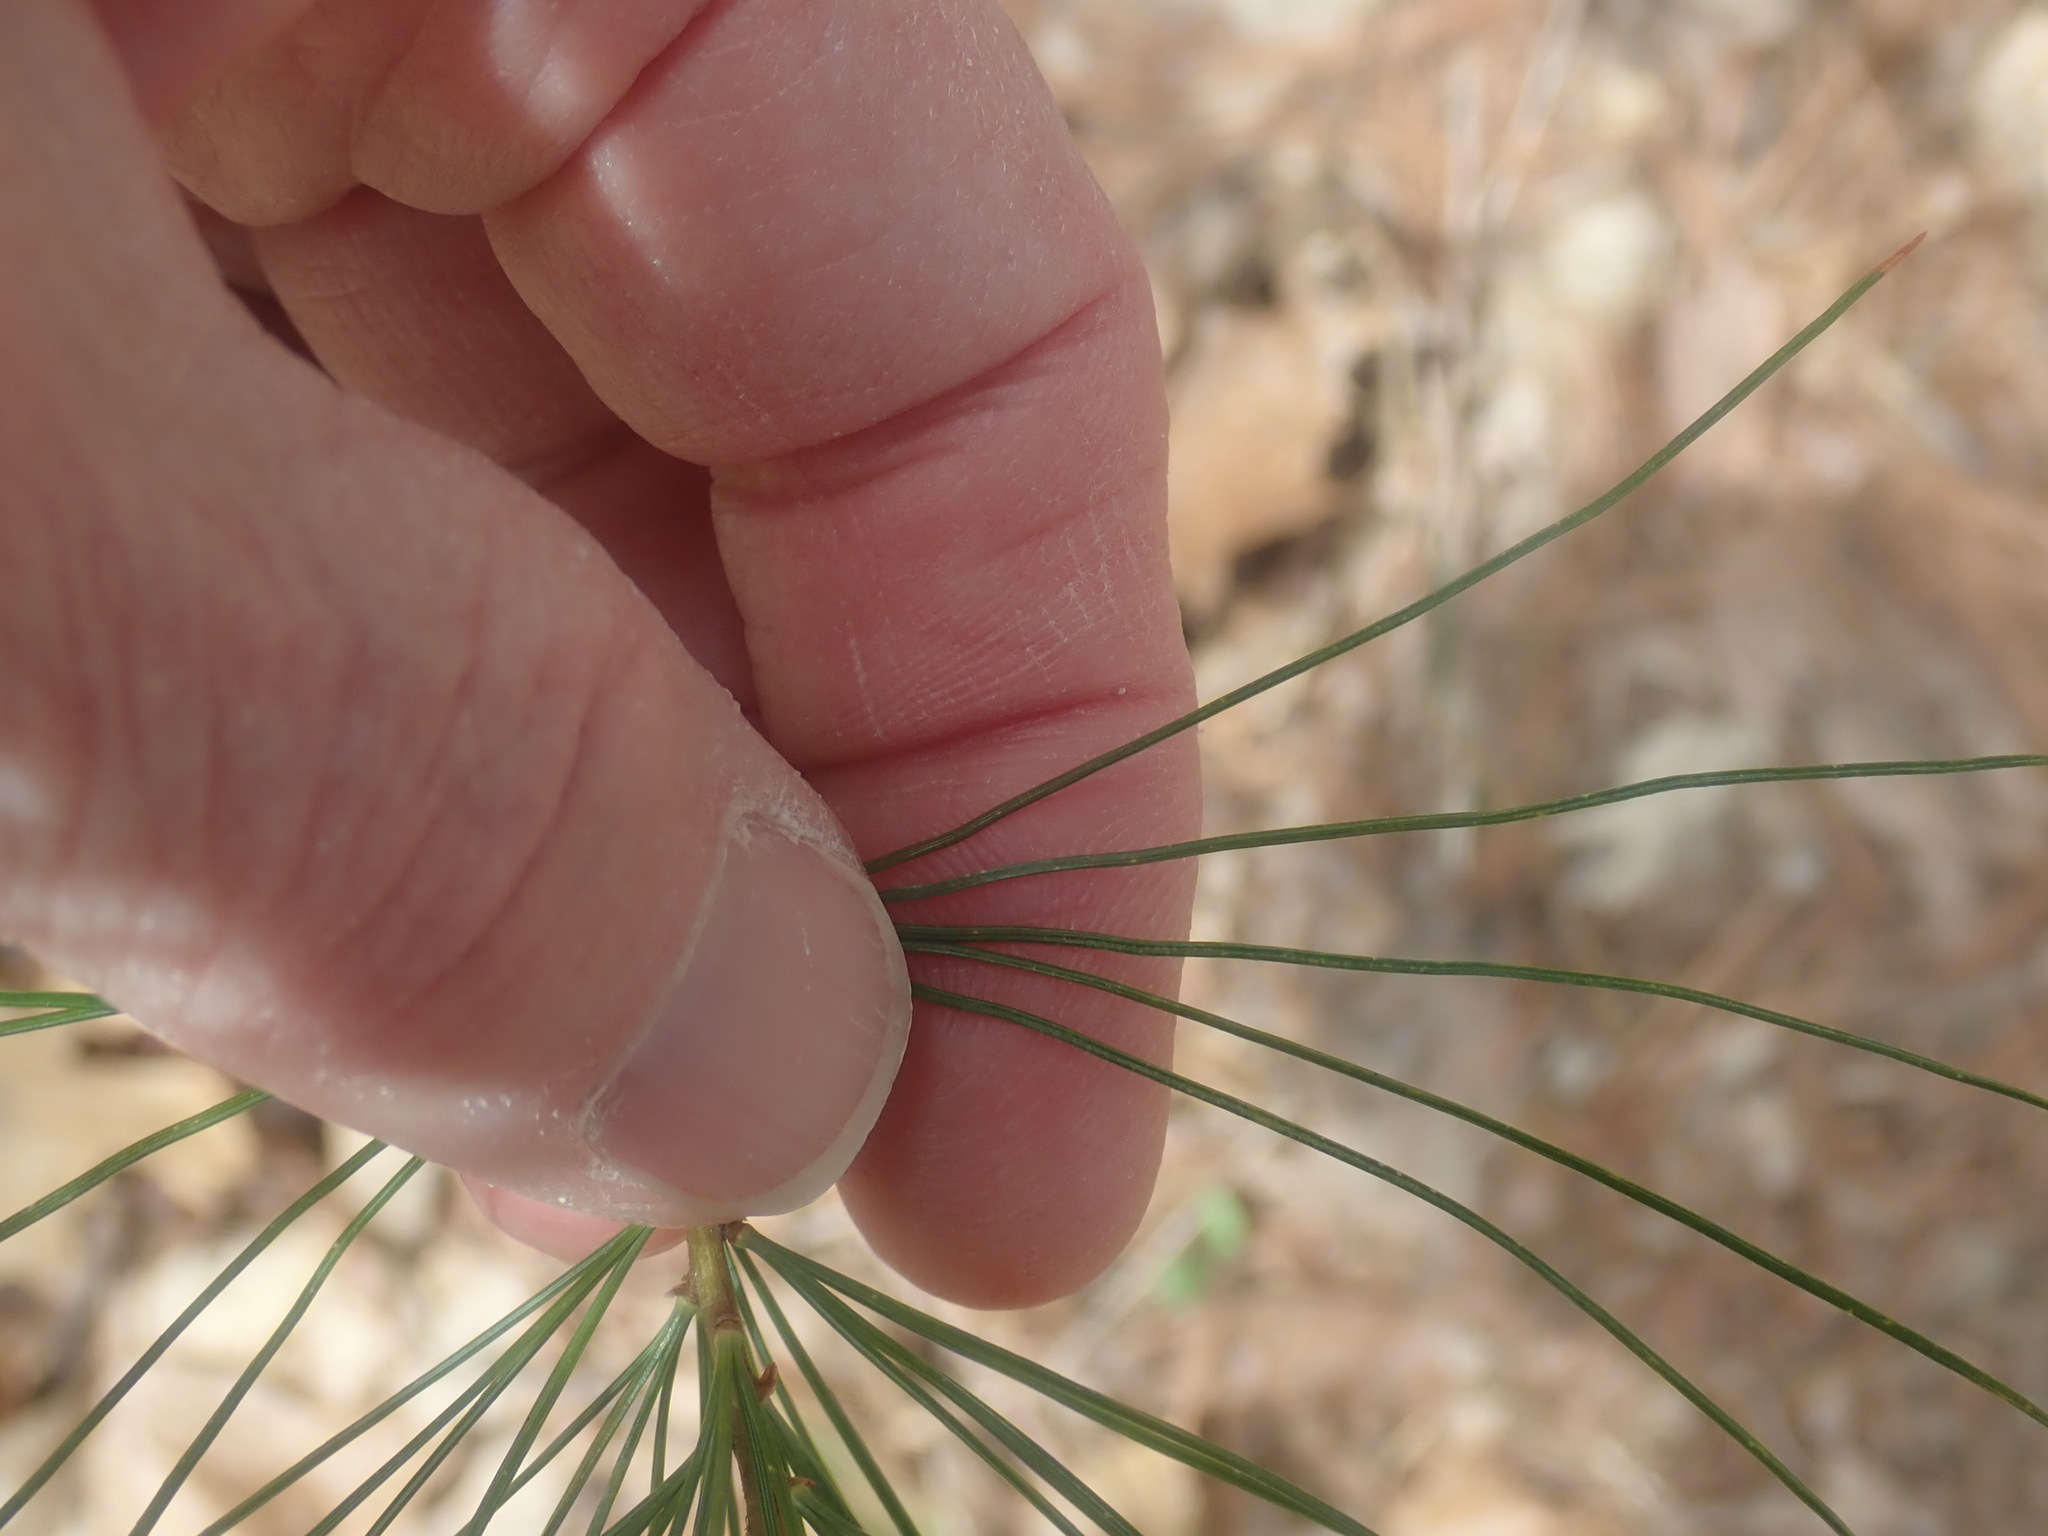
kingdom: Plantae
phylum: Tracheophyta
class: Pinopsida
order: Pinales
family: Pinaceae
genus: Pinus
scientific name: Pinus strobus
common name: Weymouth pine
